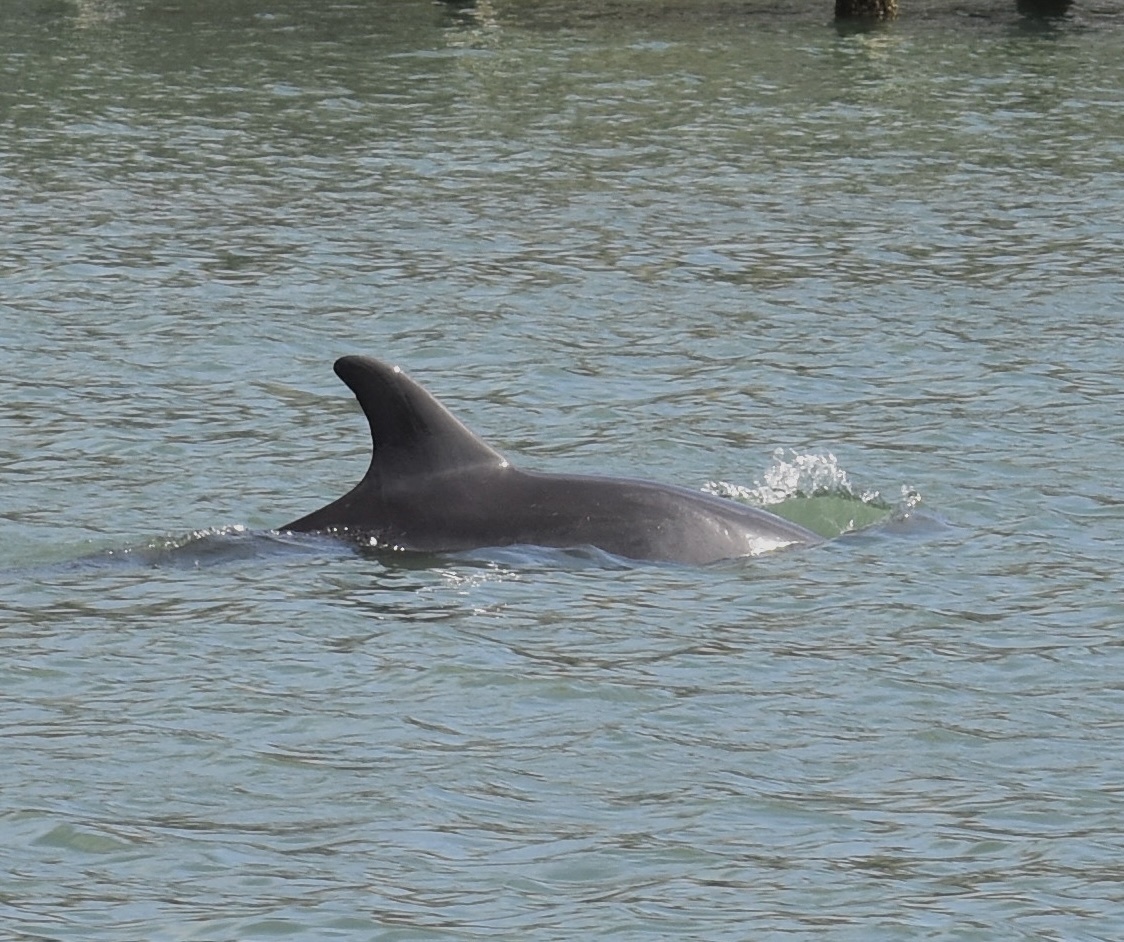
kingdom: Animalia
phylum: Chordata
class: Mammalia
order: Cetacea
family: Delphinidae
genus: Tursiops
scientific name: Tursiops truncatus
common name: Bottlenose dolphin
